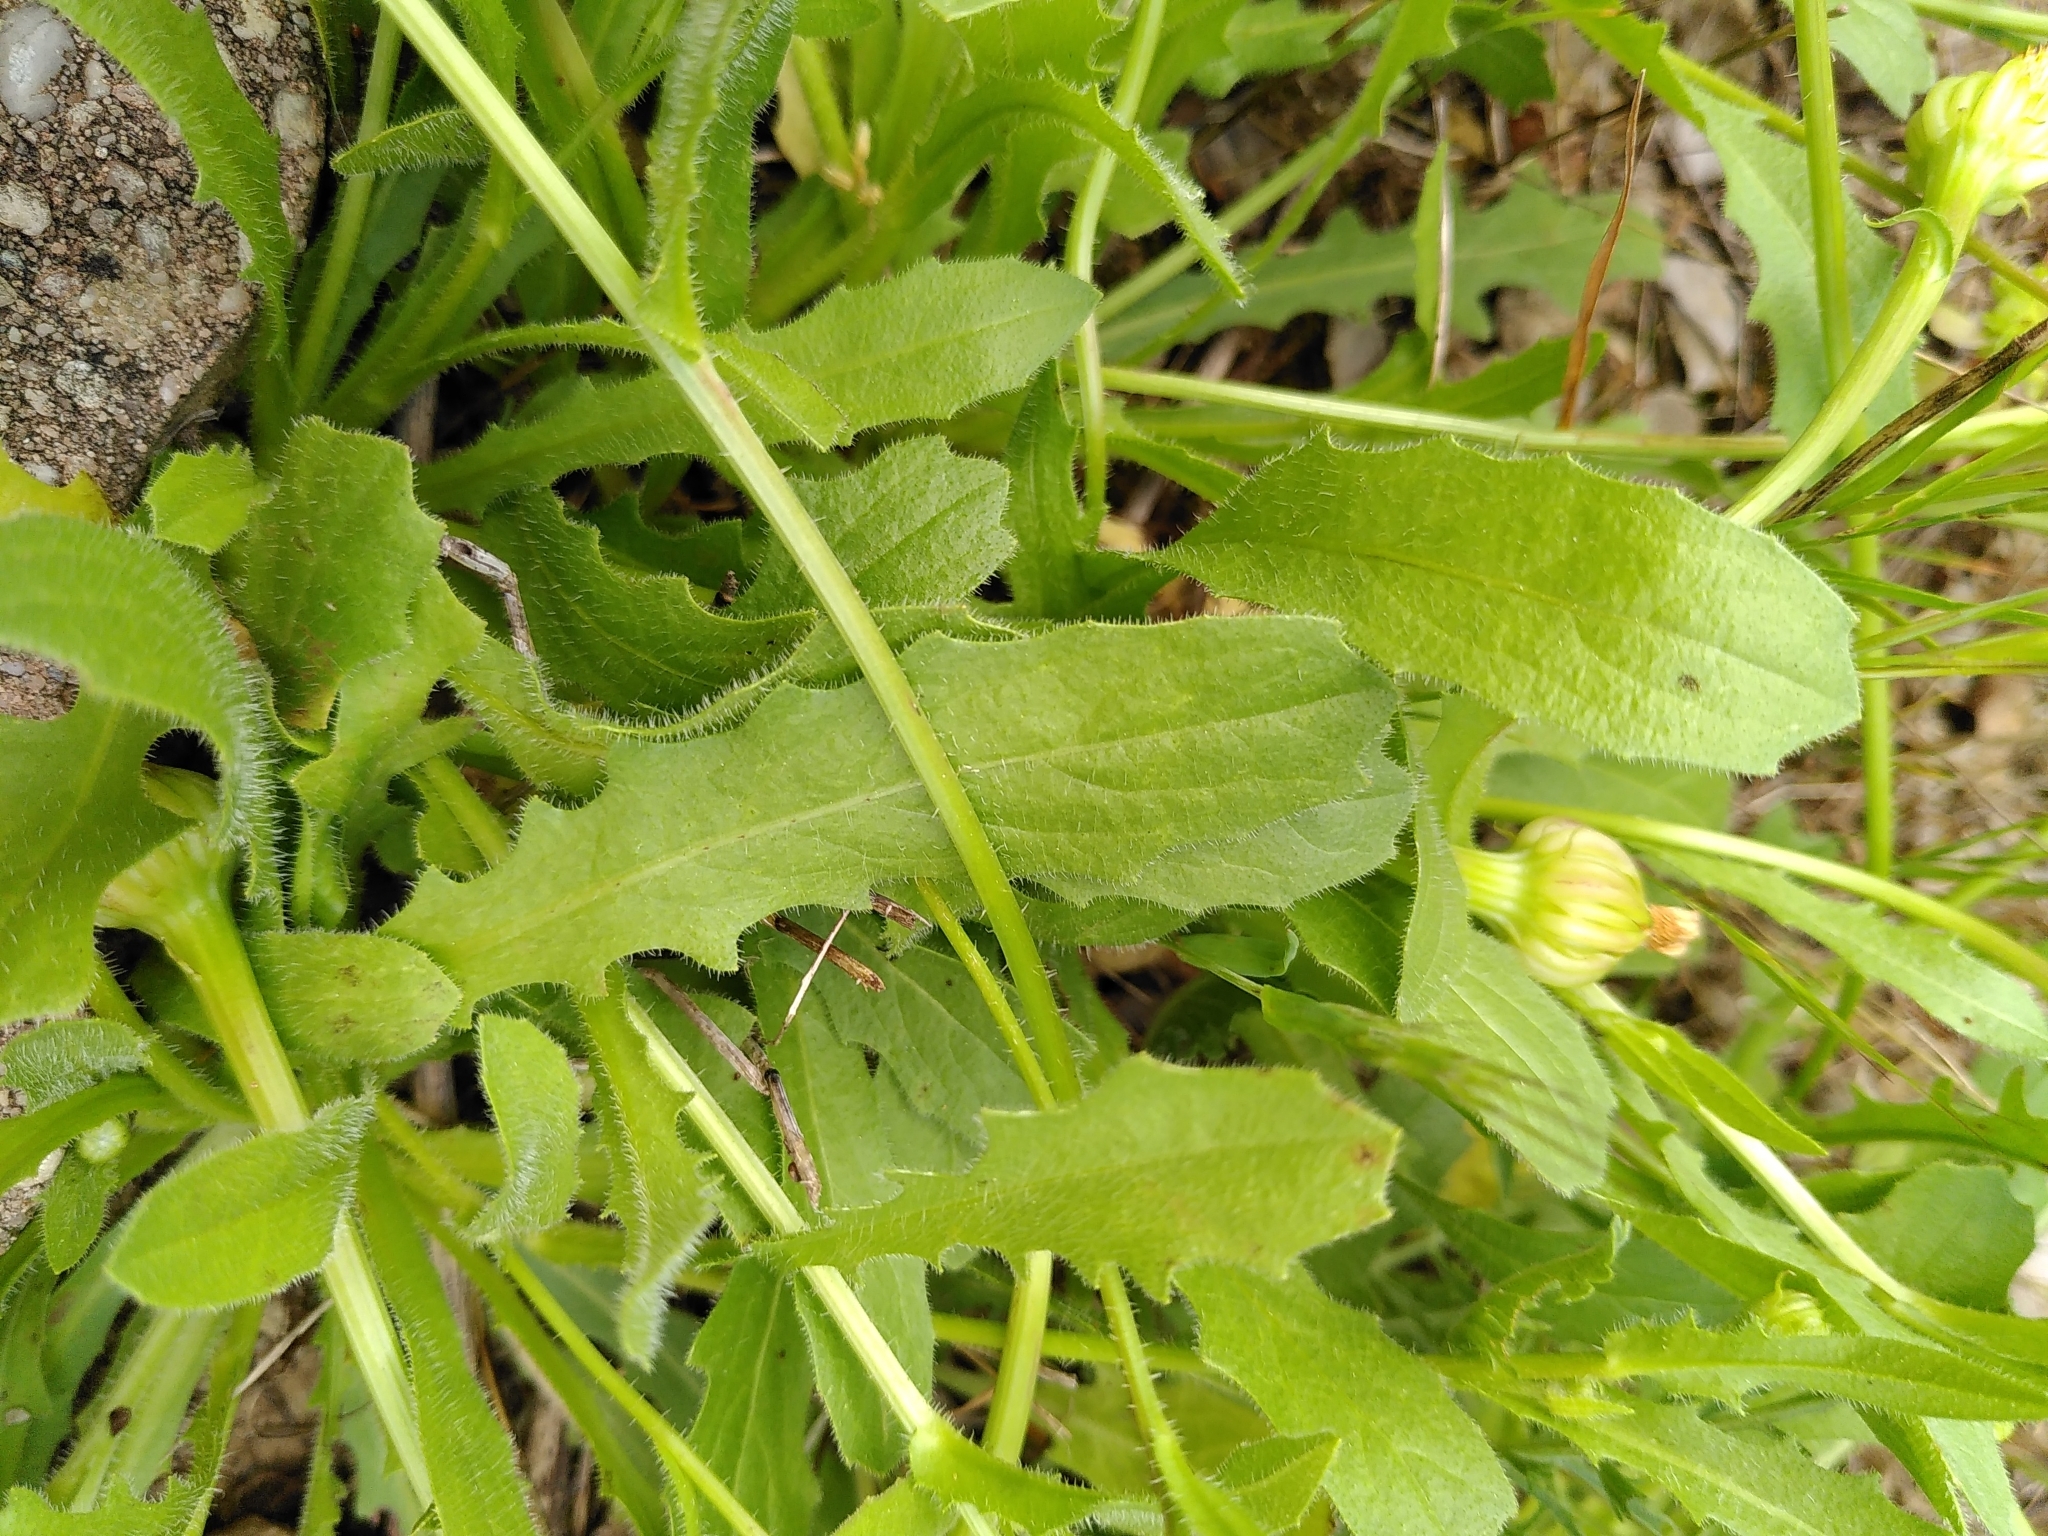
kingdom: Plantae
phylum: Tracheophyta
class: Magnoliopsida
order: Asterales
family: Asteraceae
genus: Hedypnois
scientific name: Hedypnois rhagadioloides
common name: Cretan weed
